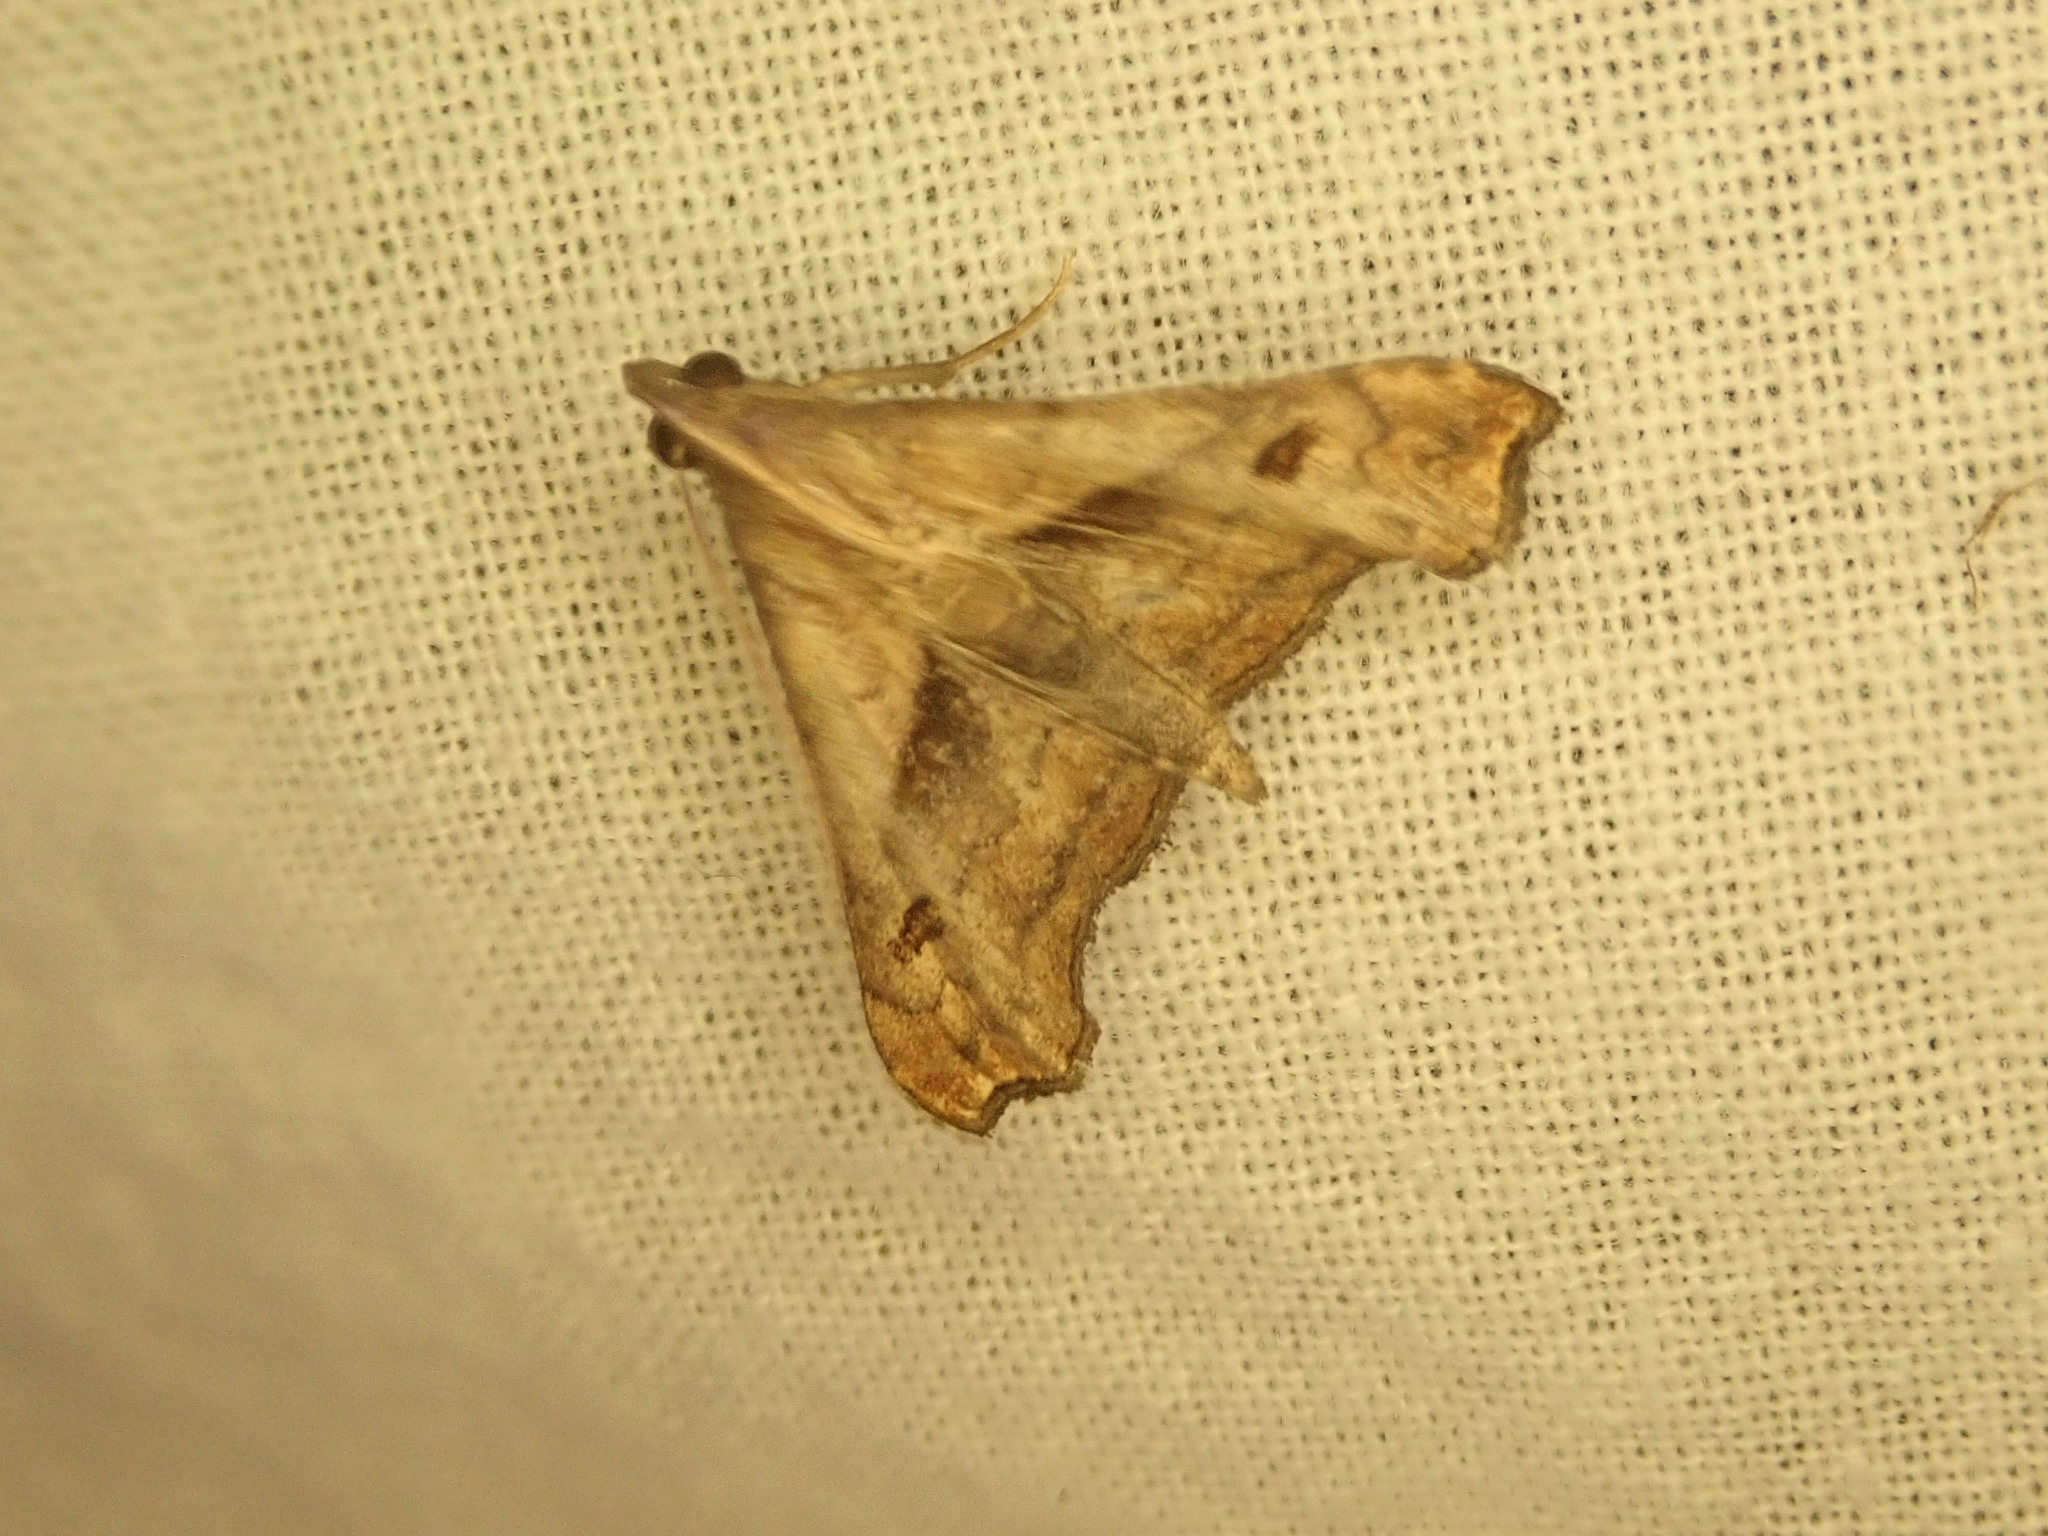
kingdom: Animalia
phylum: Arthropoda
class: Insecta
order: Lepidoptera
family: Erebidae
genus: Palthis
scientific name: Palthis angulalis
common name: Dark-spotted palthis moth
